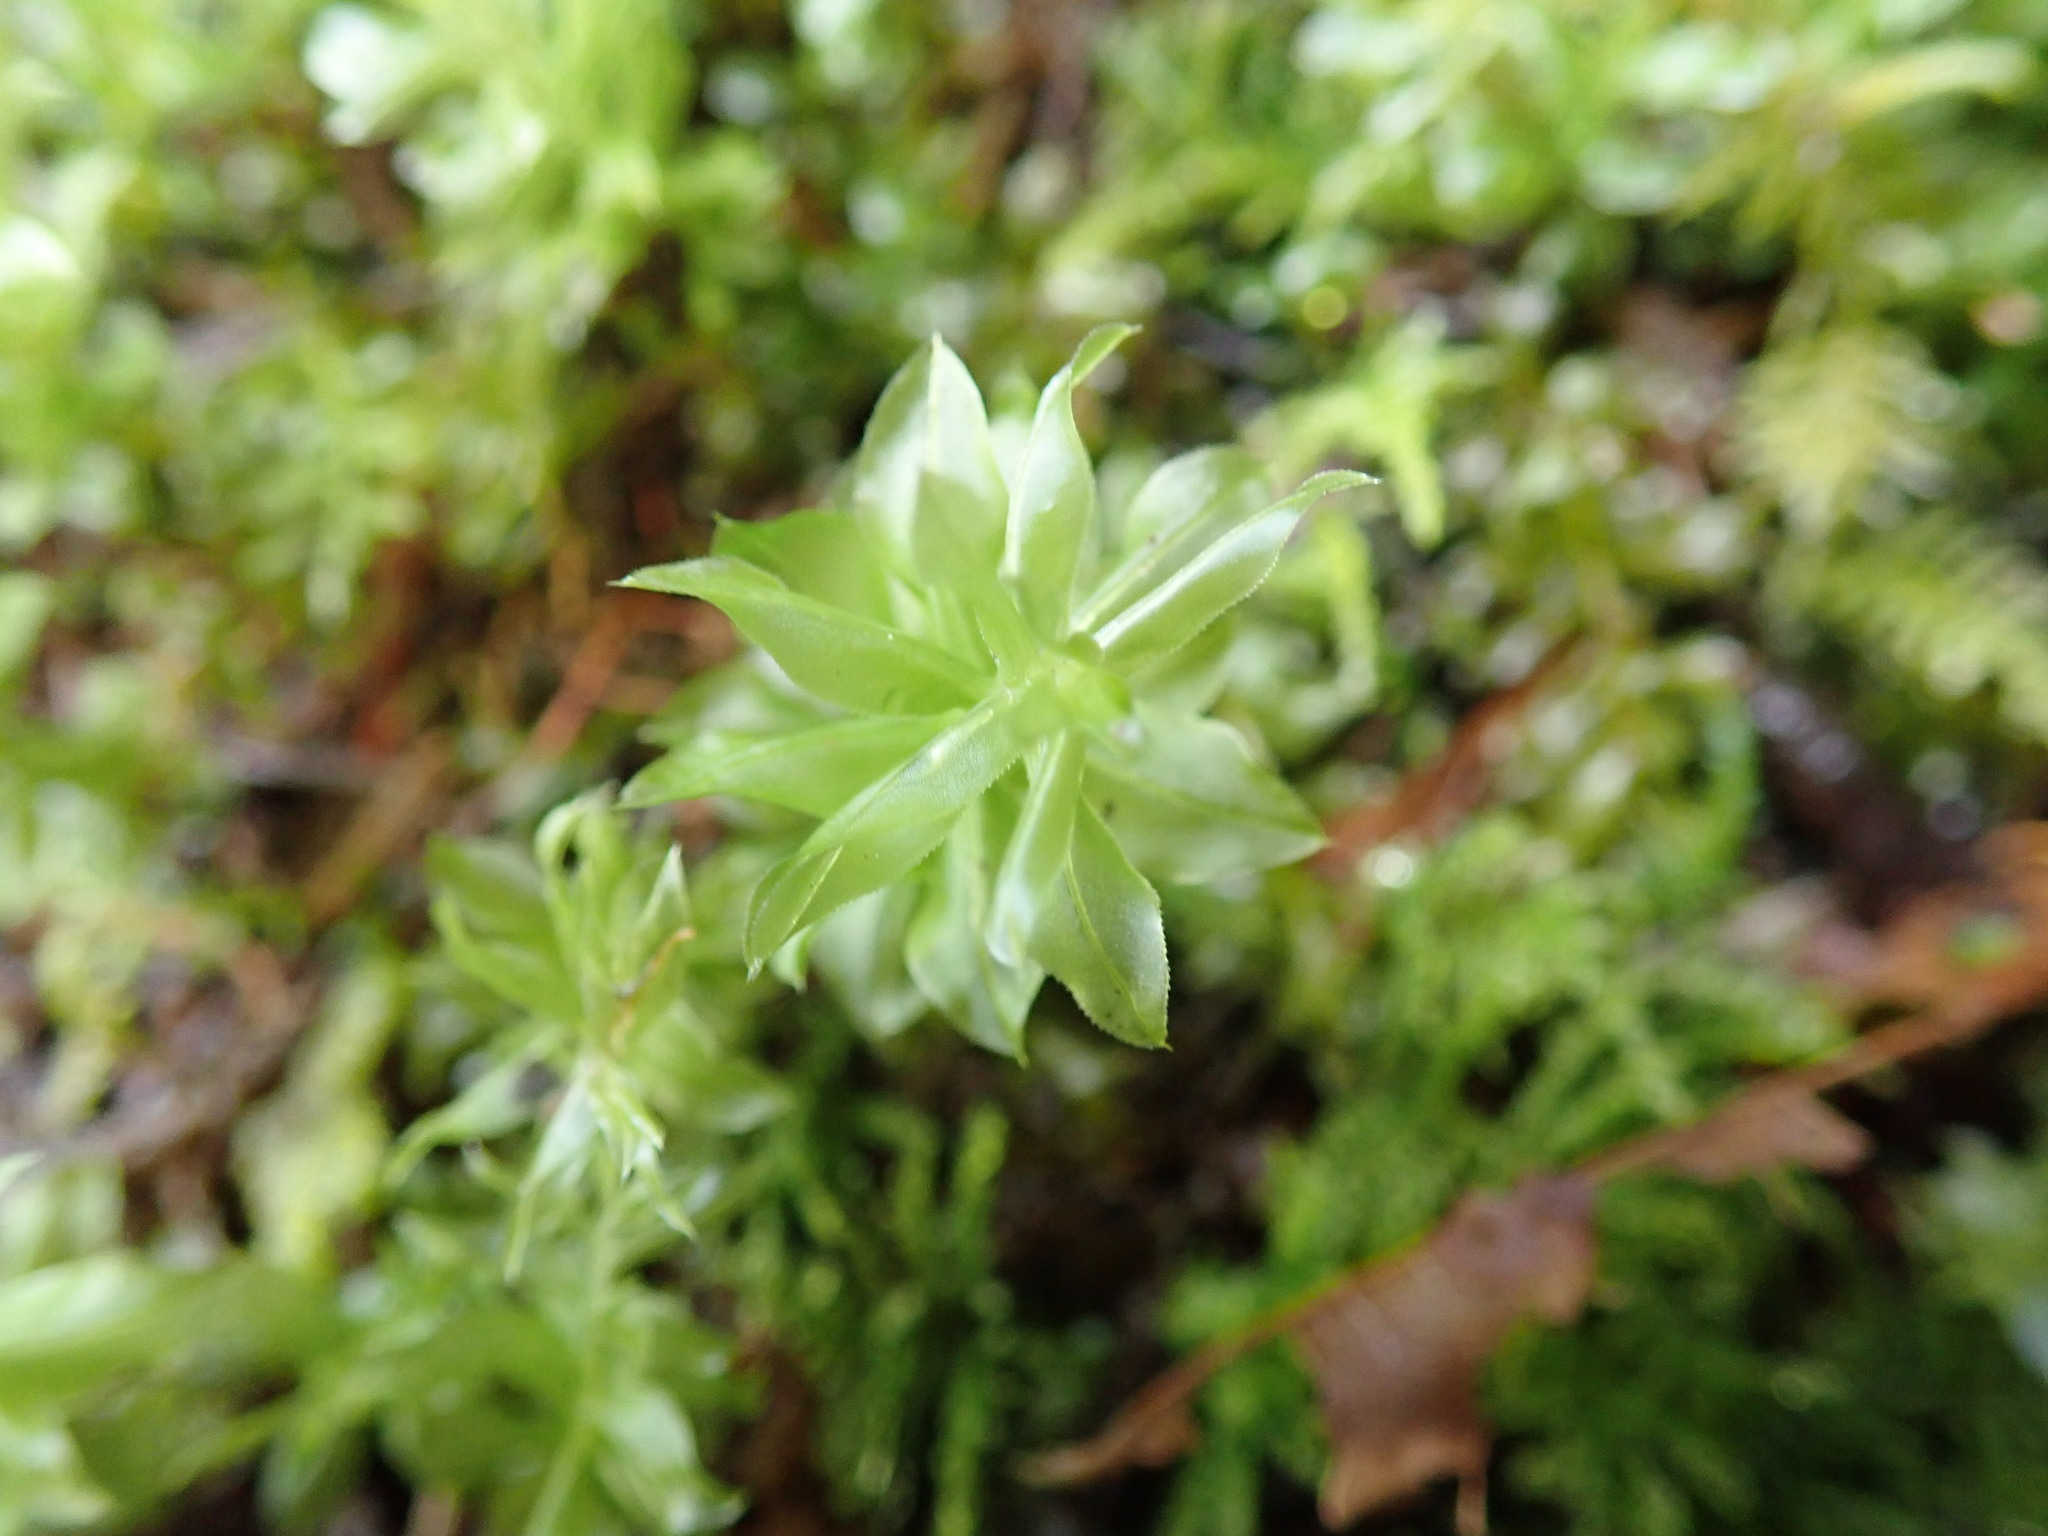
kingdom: Plantae
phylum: Bryophyta
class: Bryopsida
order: Bryales
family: Mniaceae
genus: Plagiomnium
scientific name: Plagiomnium insigne
